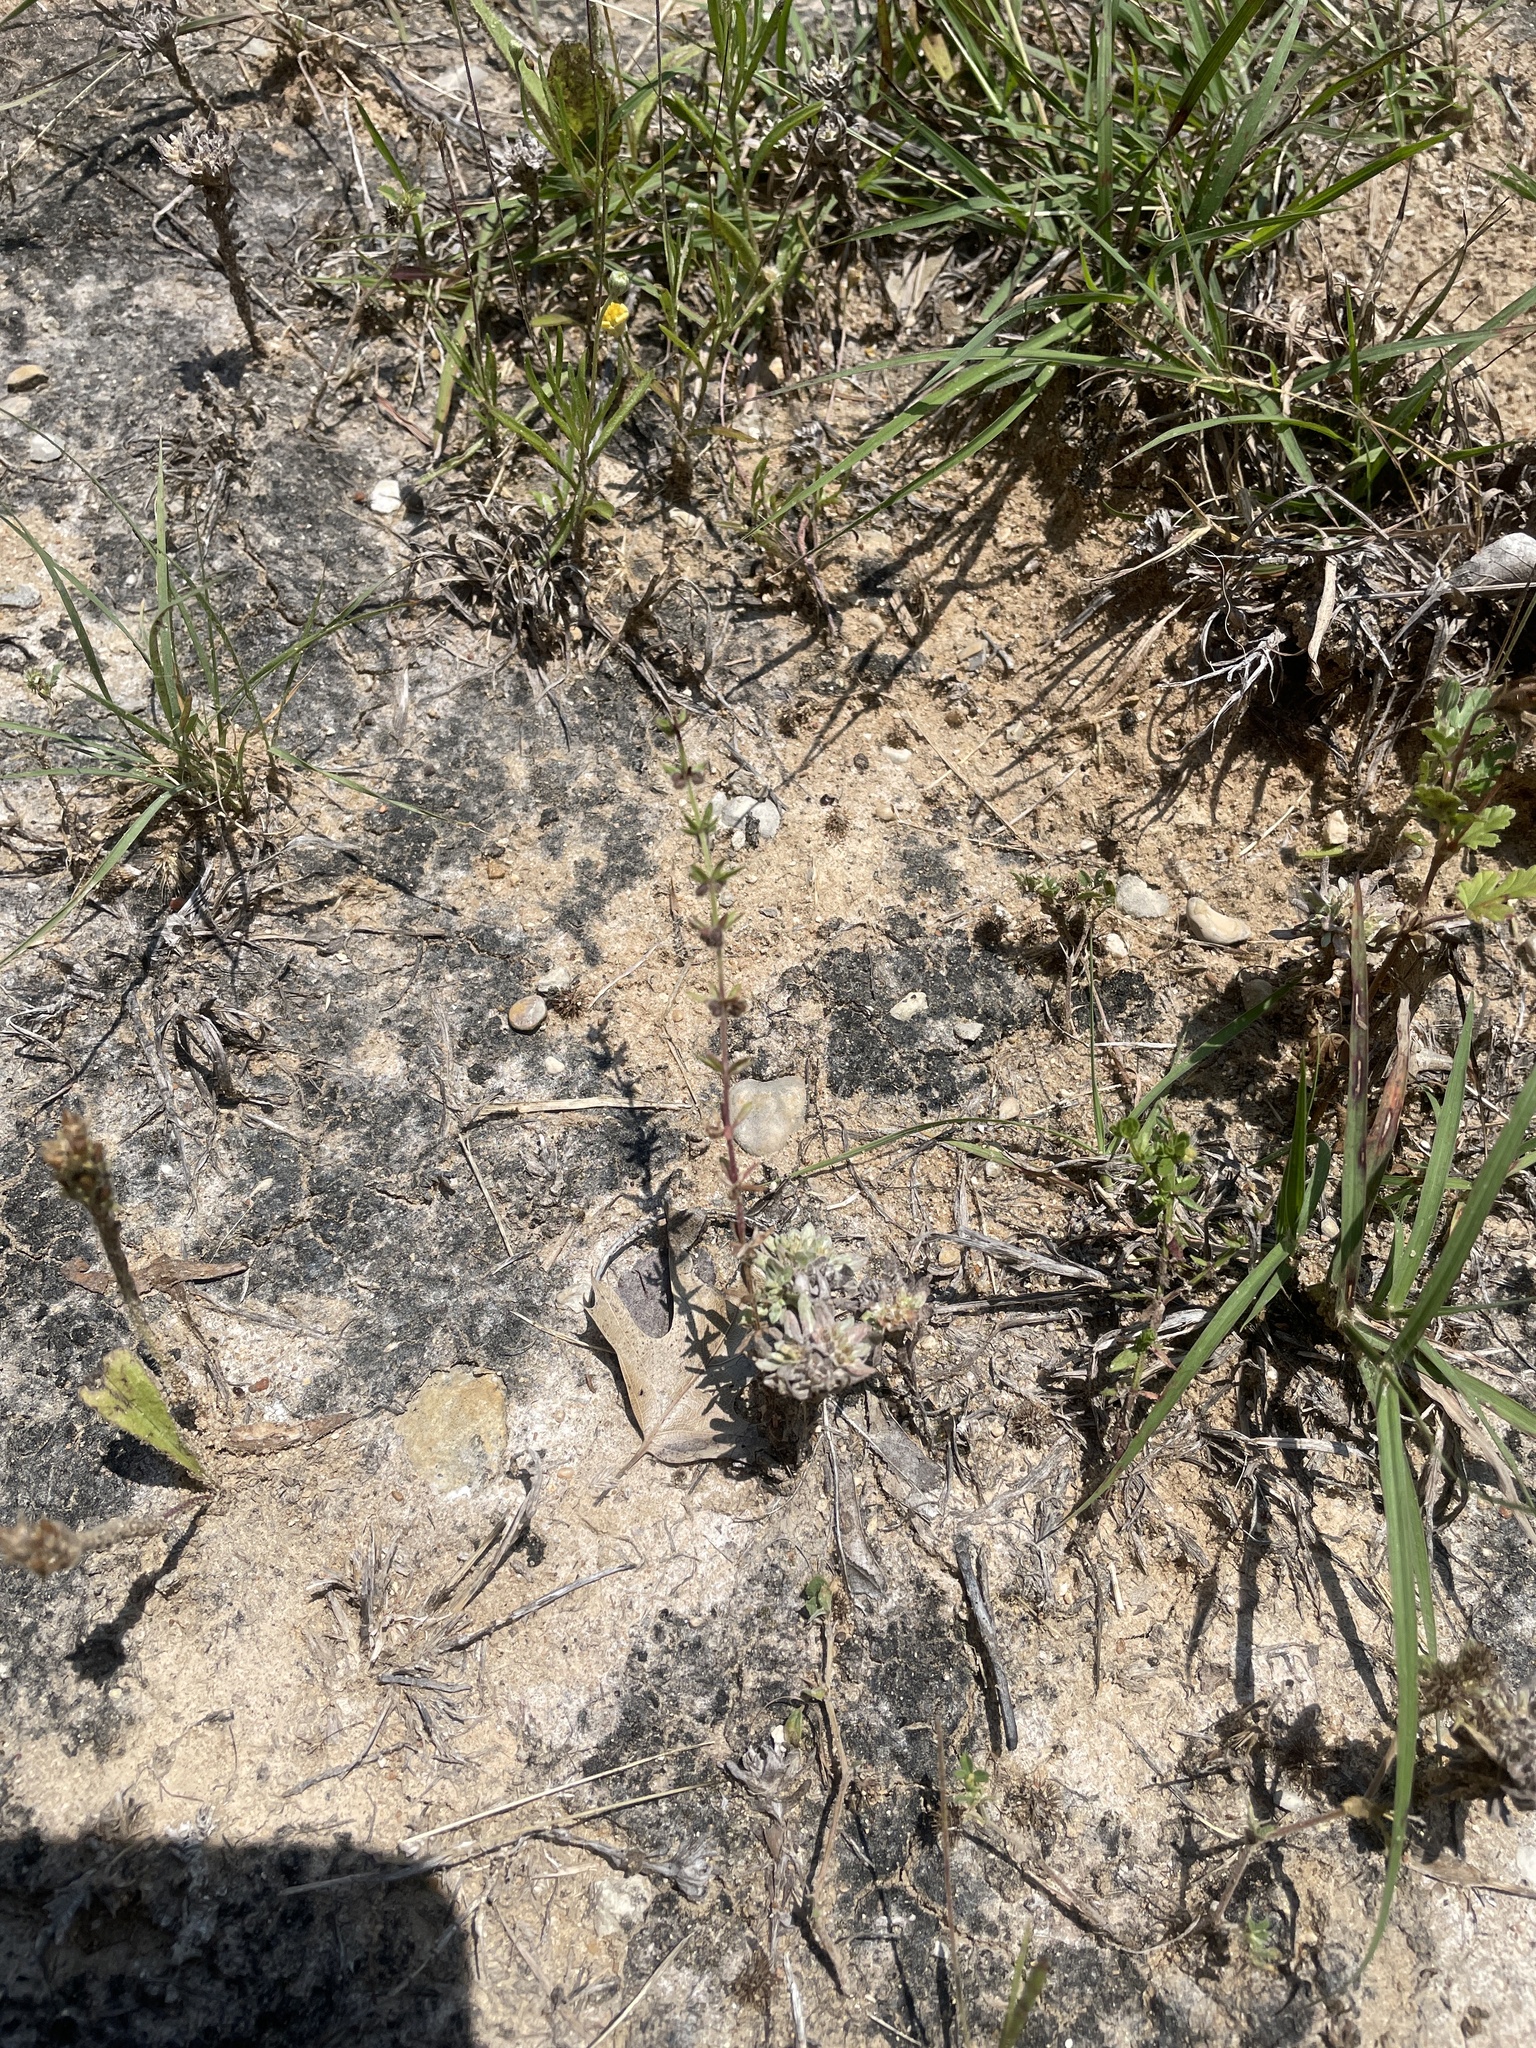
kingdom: Plantae
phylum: Tracheophyta
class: Magnoliopsida
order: Gentianales
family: Rubiaceae
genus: Galium
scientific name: Galium virgatum
